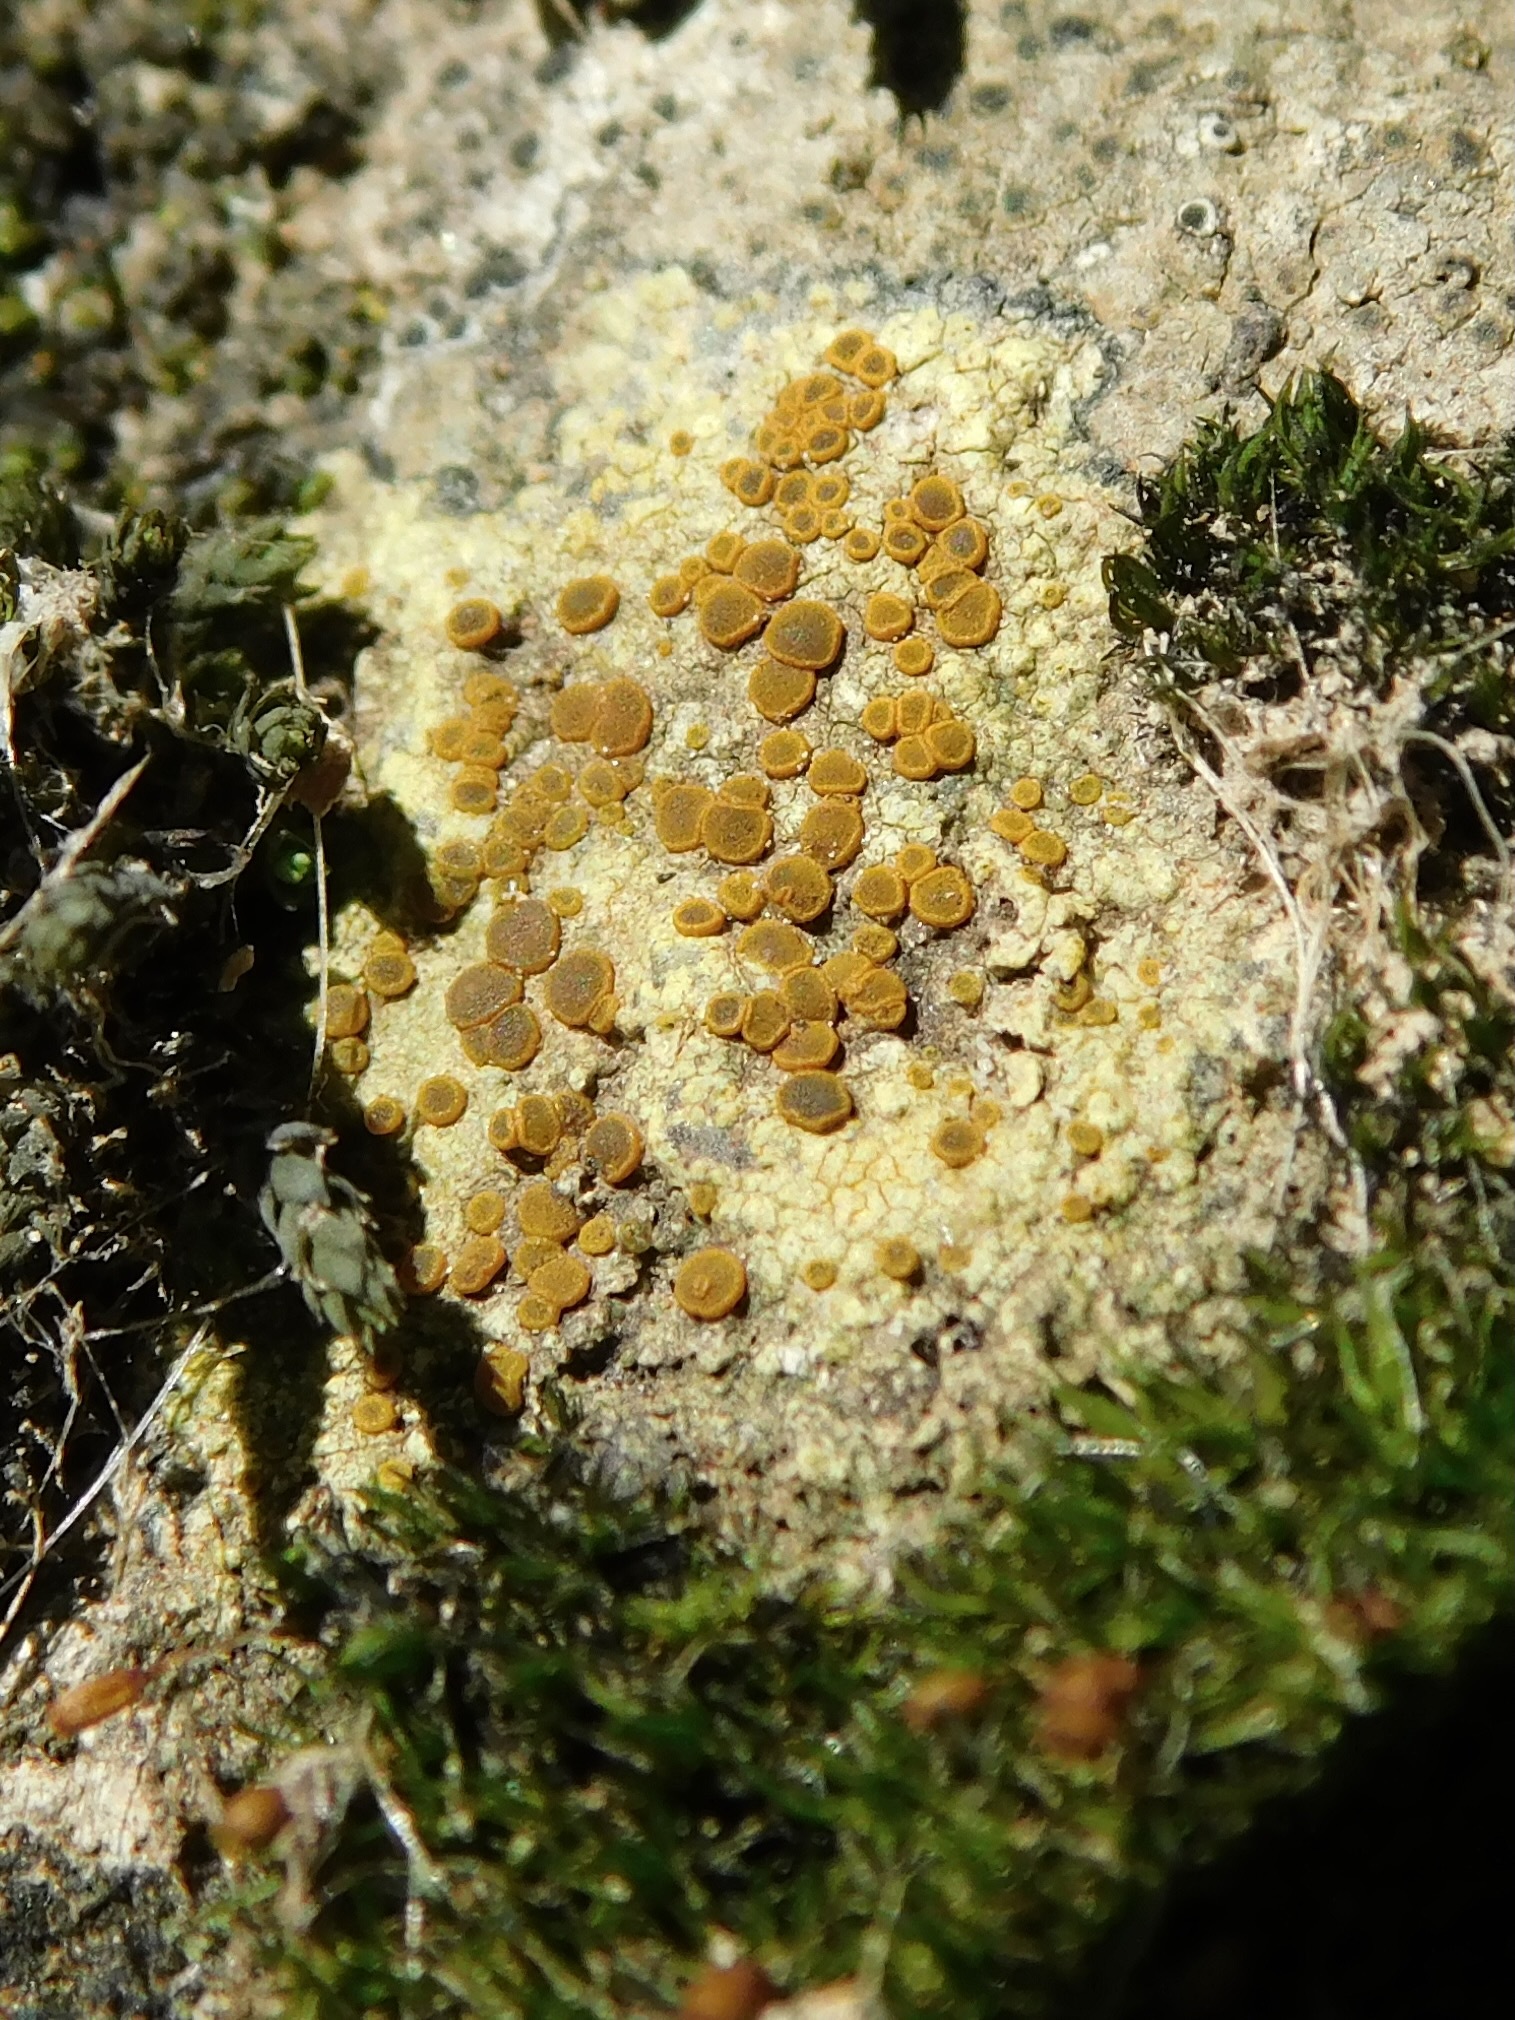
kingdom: Fungi
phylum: Ascomycota
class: Lecanoromycetes
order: Teloschistales
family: Teloschistaceae
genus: Gyalolechia
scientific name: Gyalolechia flavovirescens
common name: Sulphur firedot
